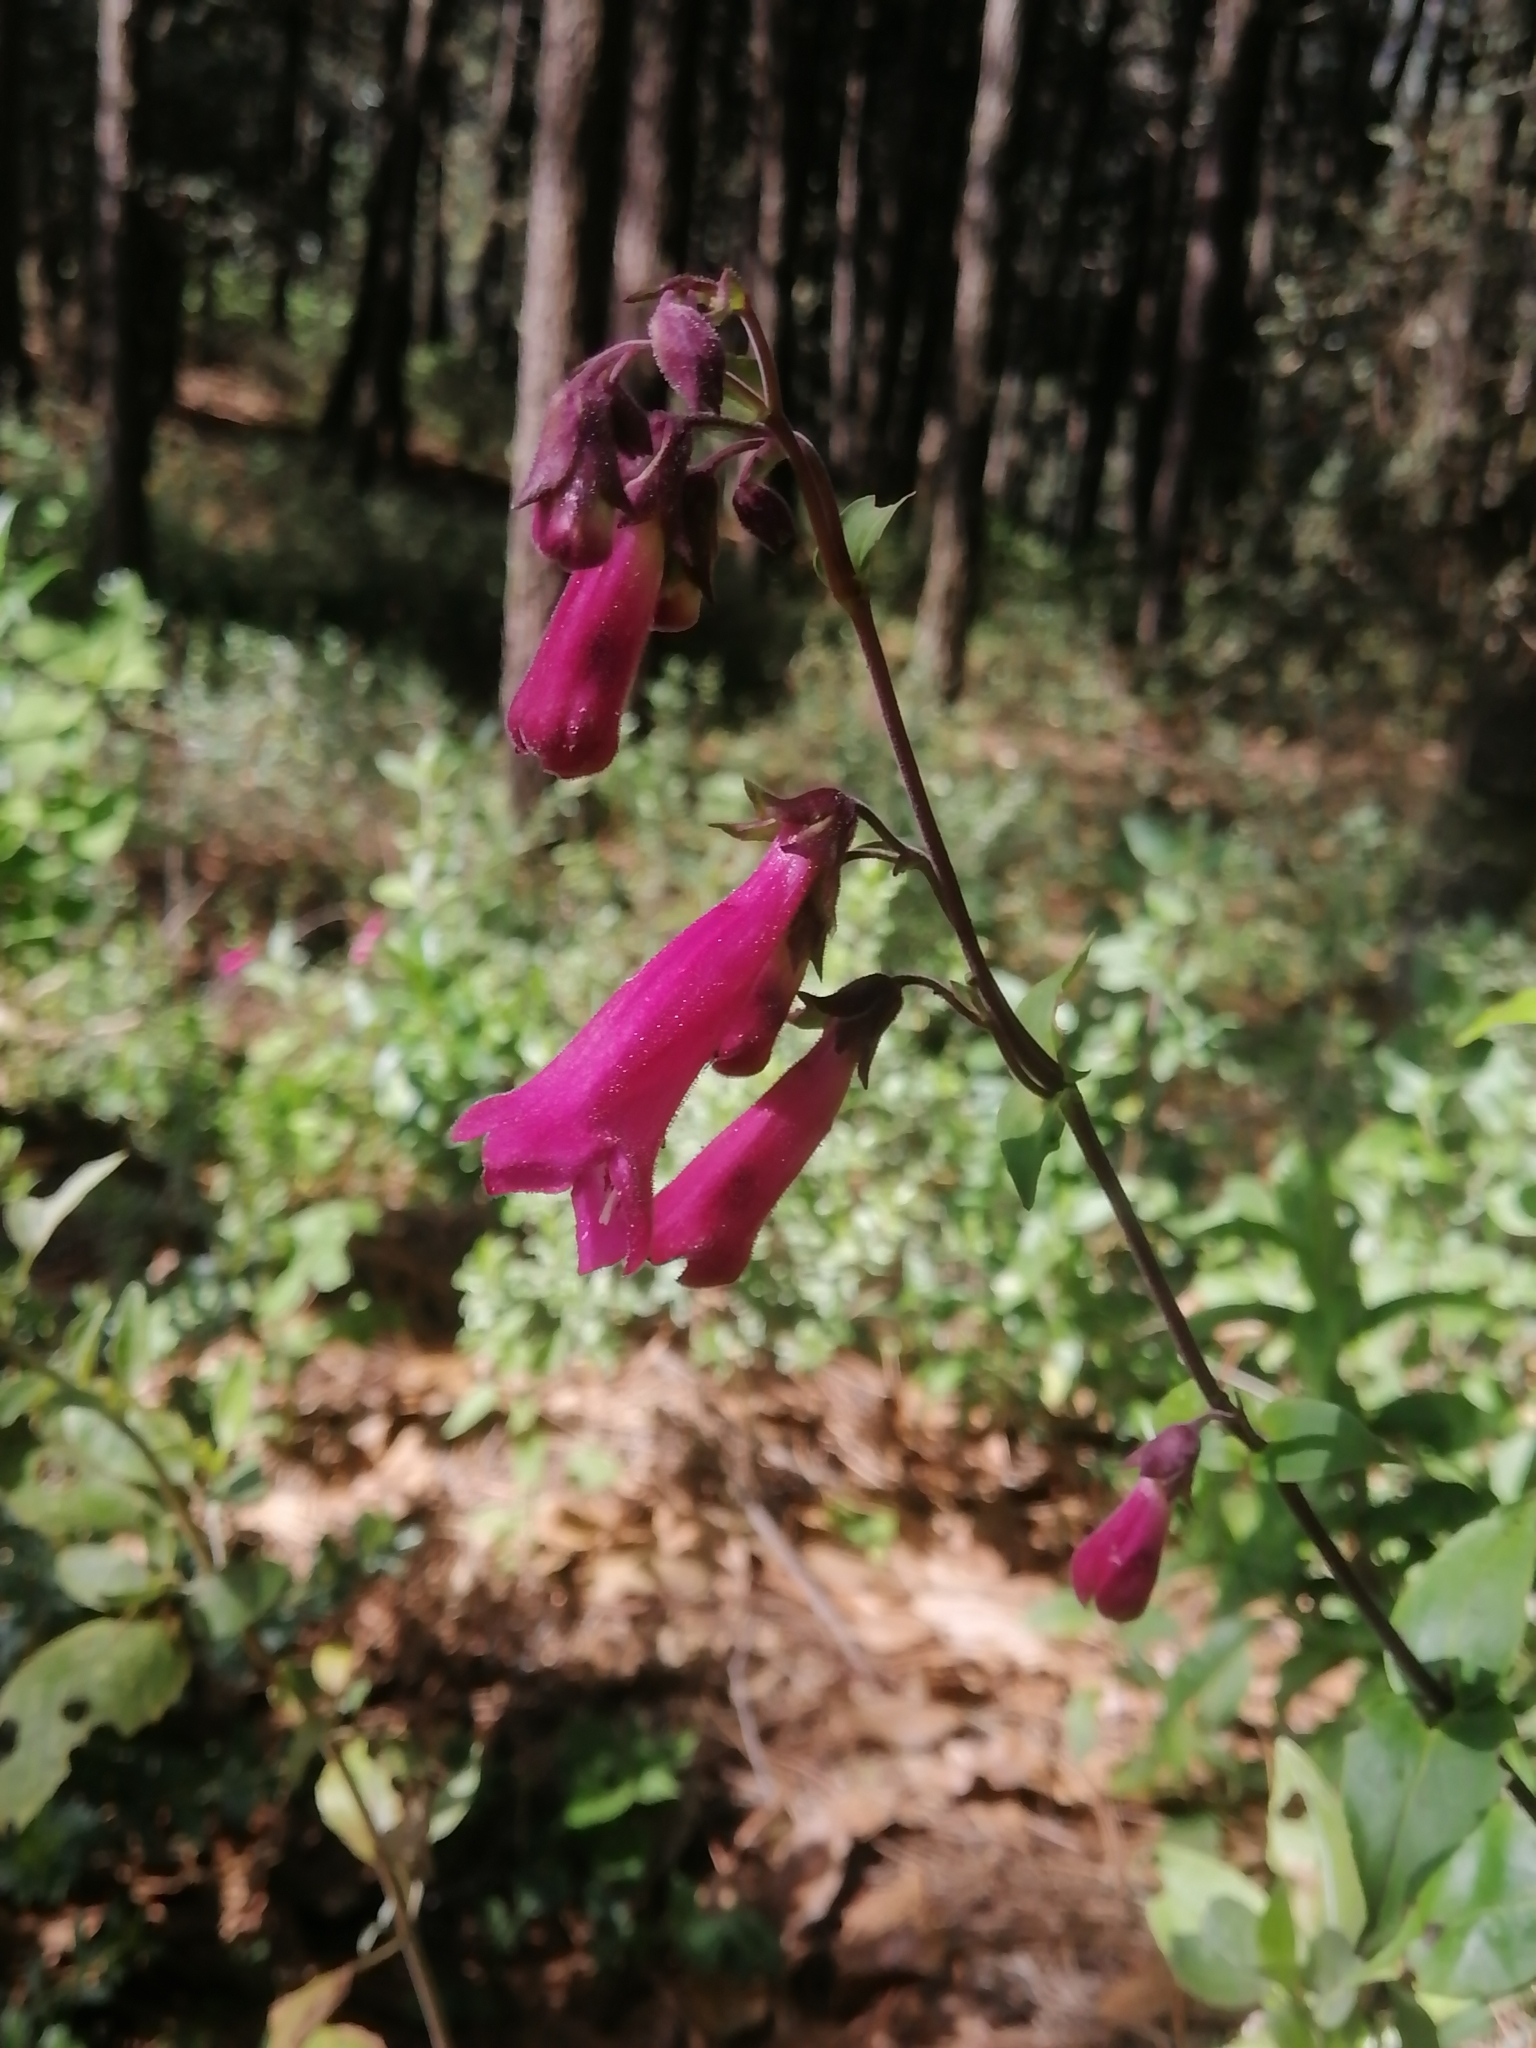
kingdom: Plantae
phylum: Tracheophyta
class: Magnoliopsida
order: Lamiales
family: Plantaginaceae
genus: Penstemon
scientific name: Penstemon hartwegii
